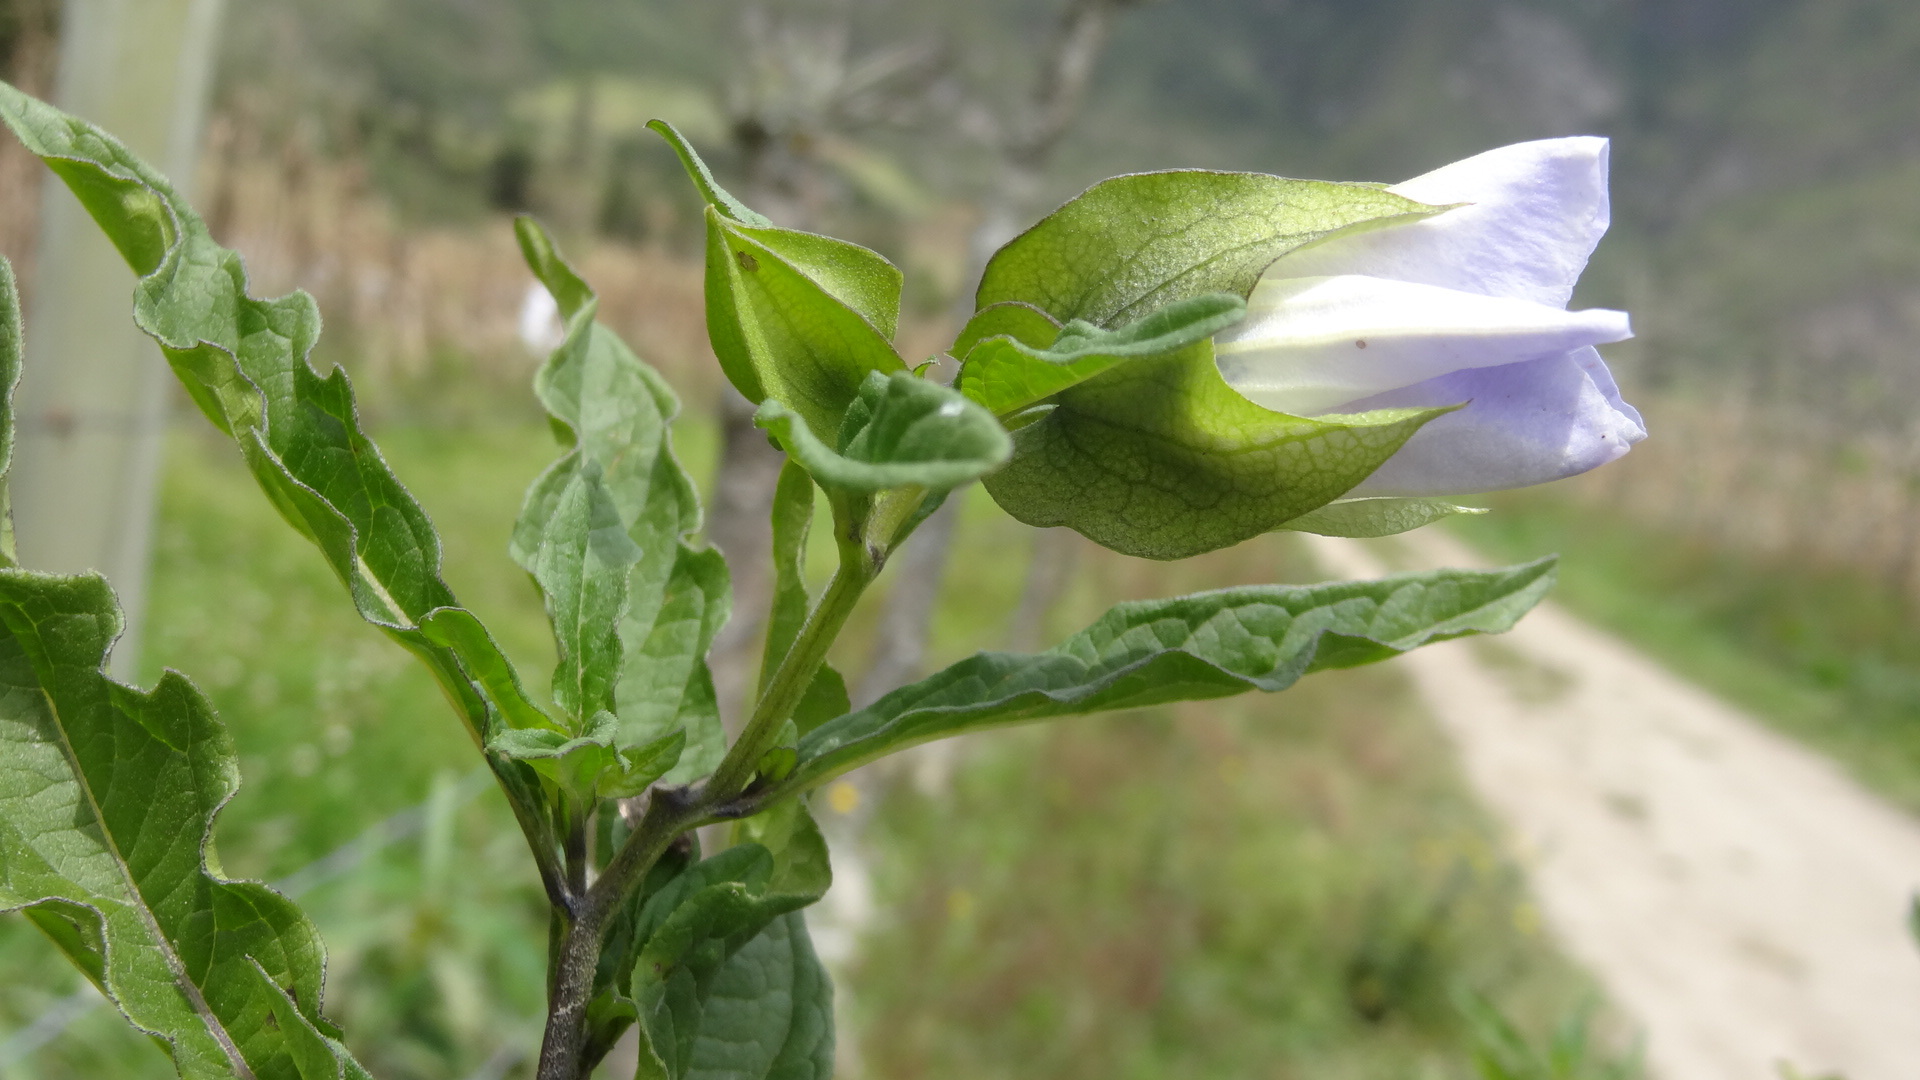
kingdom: Plantae
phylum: Tracheophyta
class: Magnoliopsida
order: Solanales
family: Solanaceae
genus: Nicandra
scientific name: Nicandra physalodes
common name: Apple-of-peru
